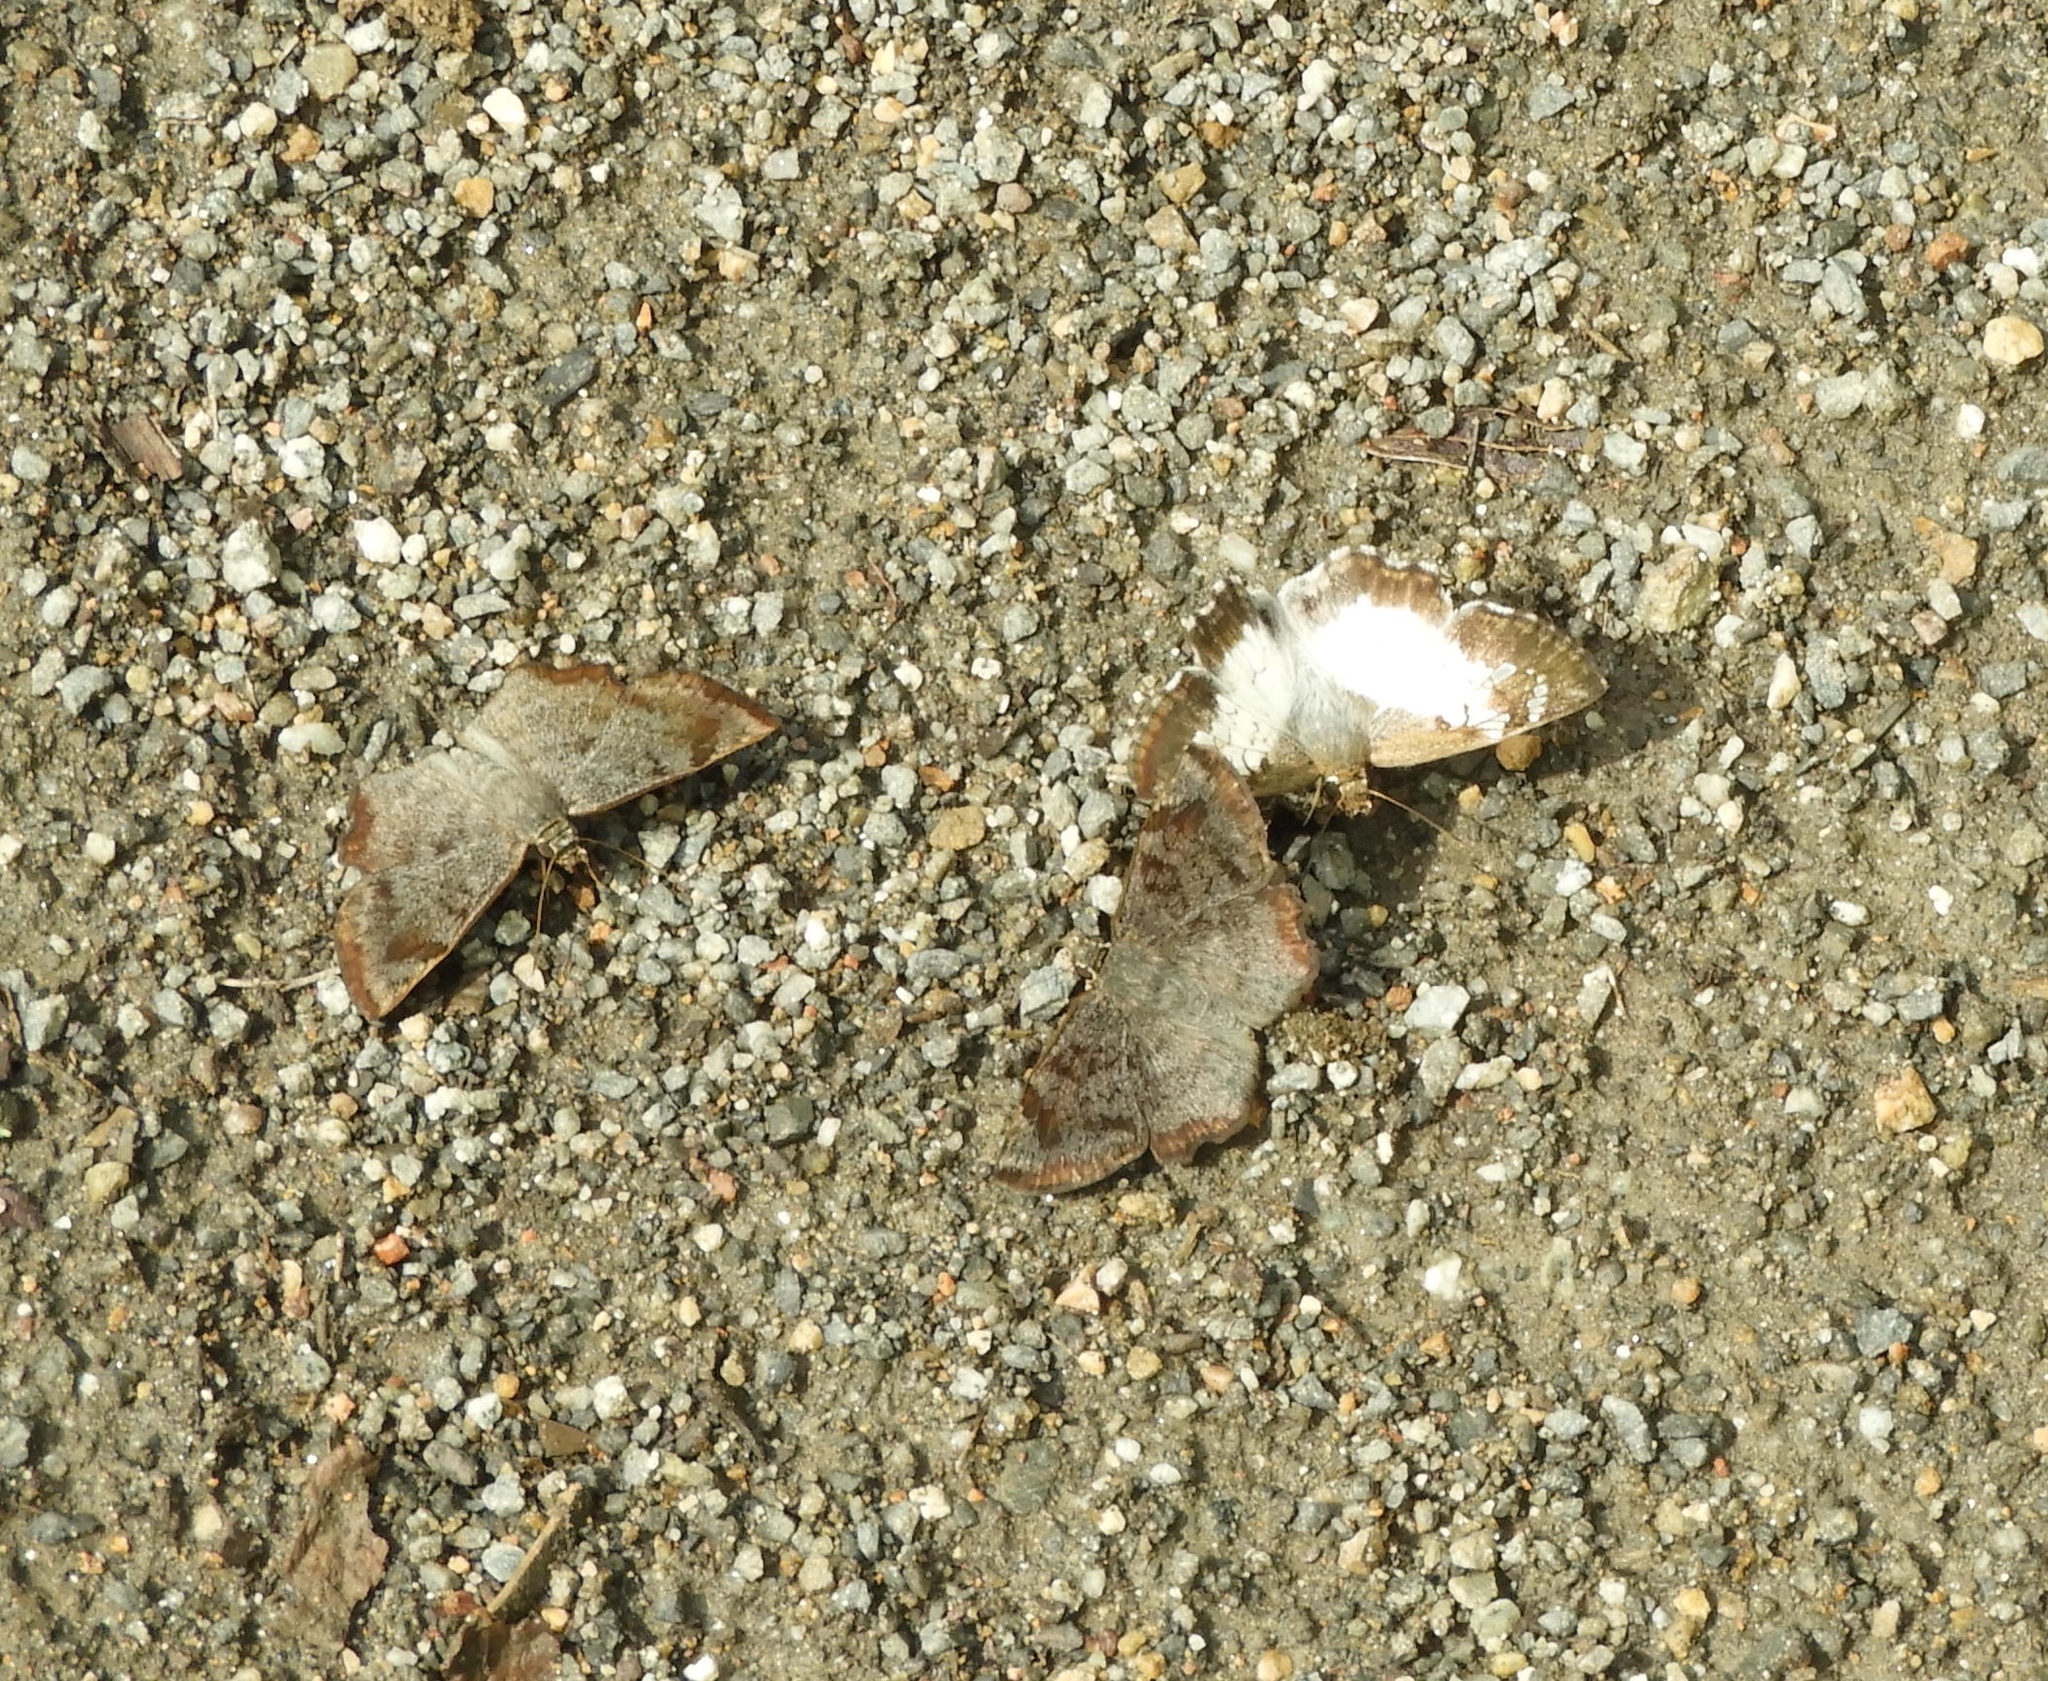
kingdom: Animalia
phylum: Arthropoda
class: Insecta
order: Lepidoptera
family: Hesperiidae
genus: Antigonus
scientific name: Antigonus emorsa
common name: White spurwing
